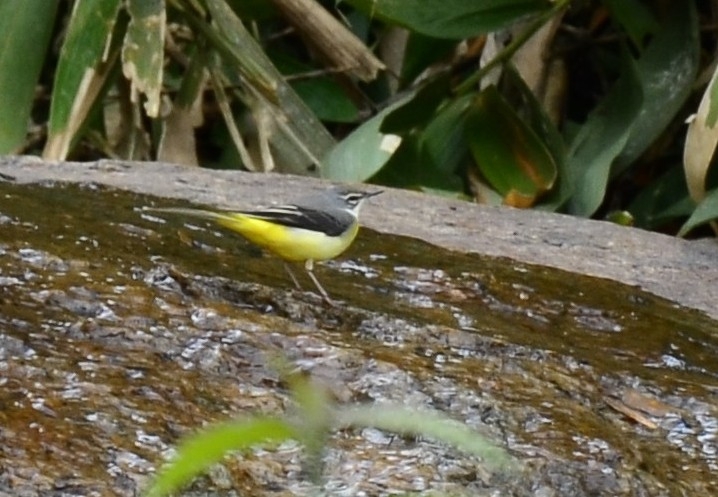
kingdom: Animalia
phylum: Chordata
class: Aves
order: Passeriformes
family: Motacillidae
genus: Motacilla
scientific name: Motacilla cinerea
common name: Grey wagtail
